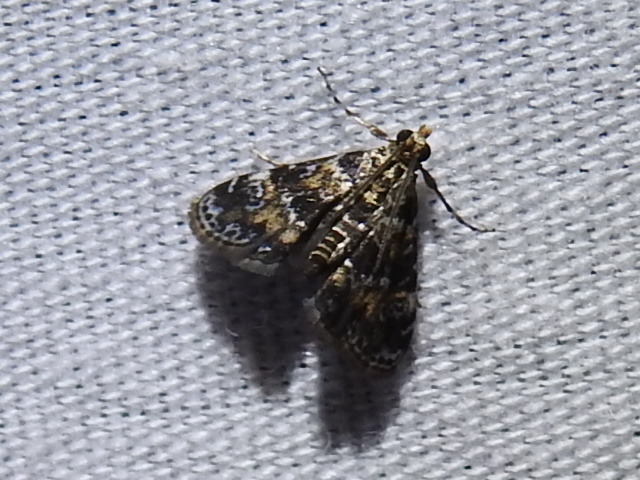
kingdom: Animalia
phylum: Arthropoda
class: Insecta
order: Lepidoptera
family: Crambidae
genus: Elophila
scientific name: Elophila obliteralis
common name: Waterlily leafcutter moth
